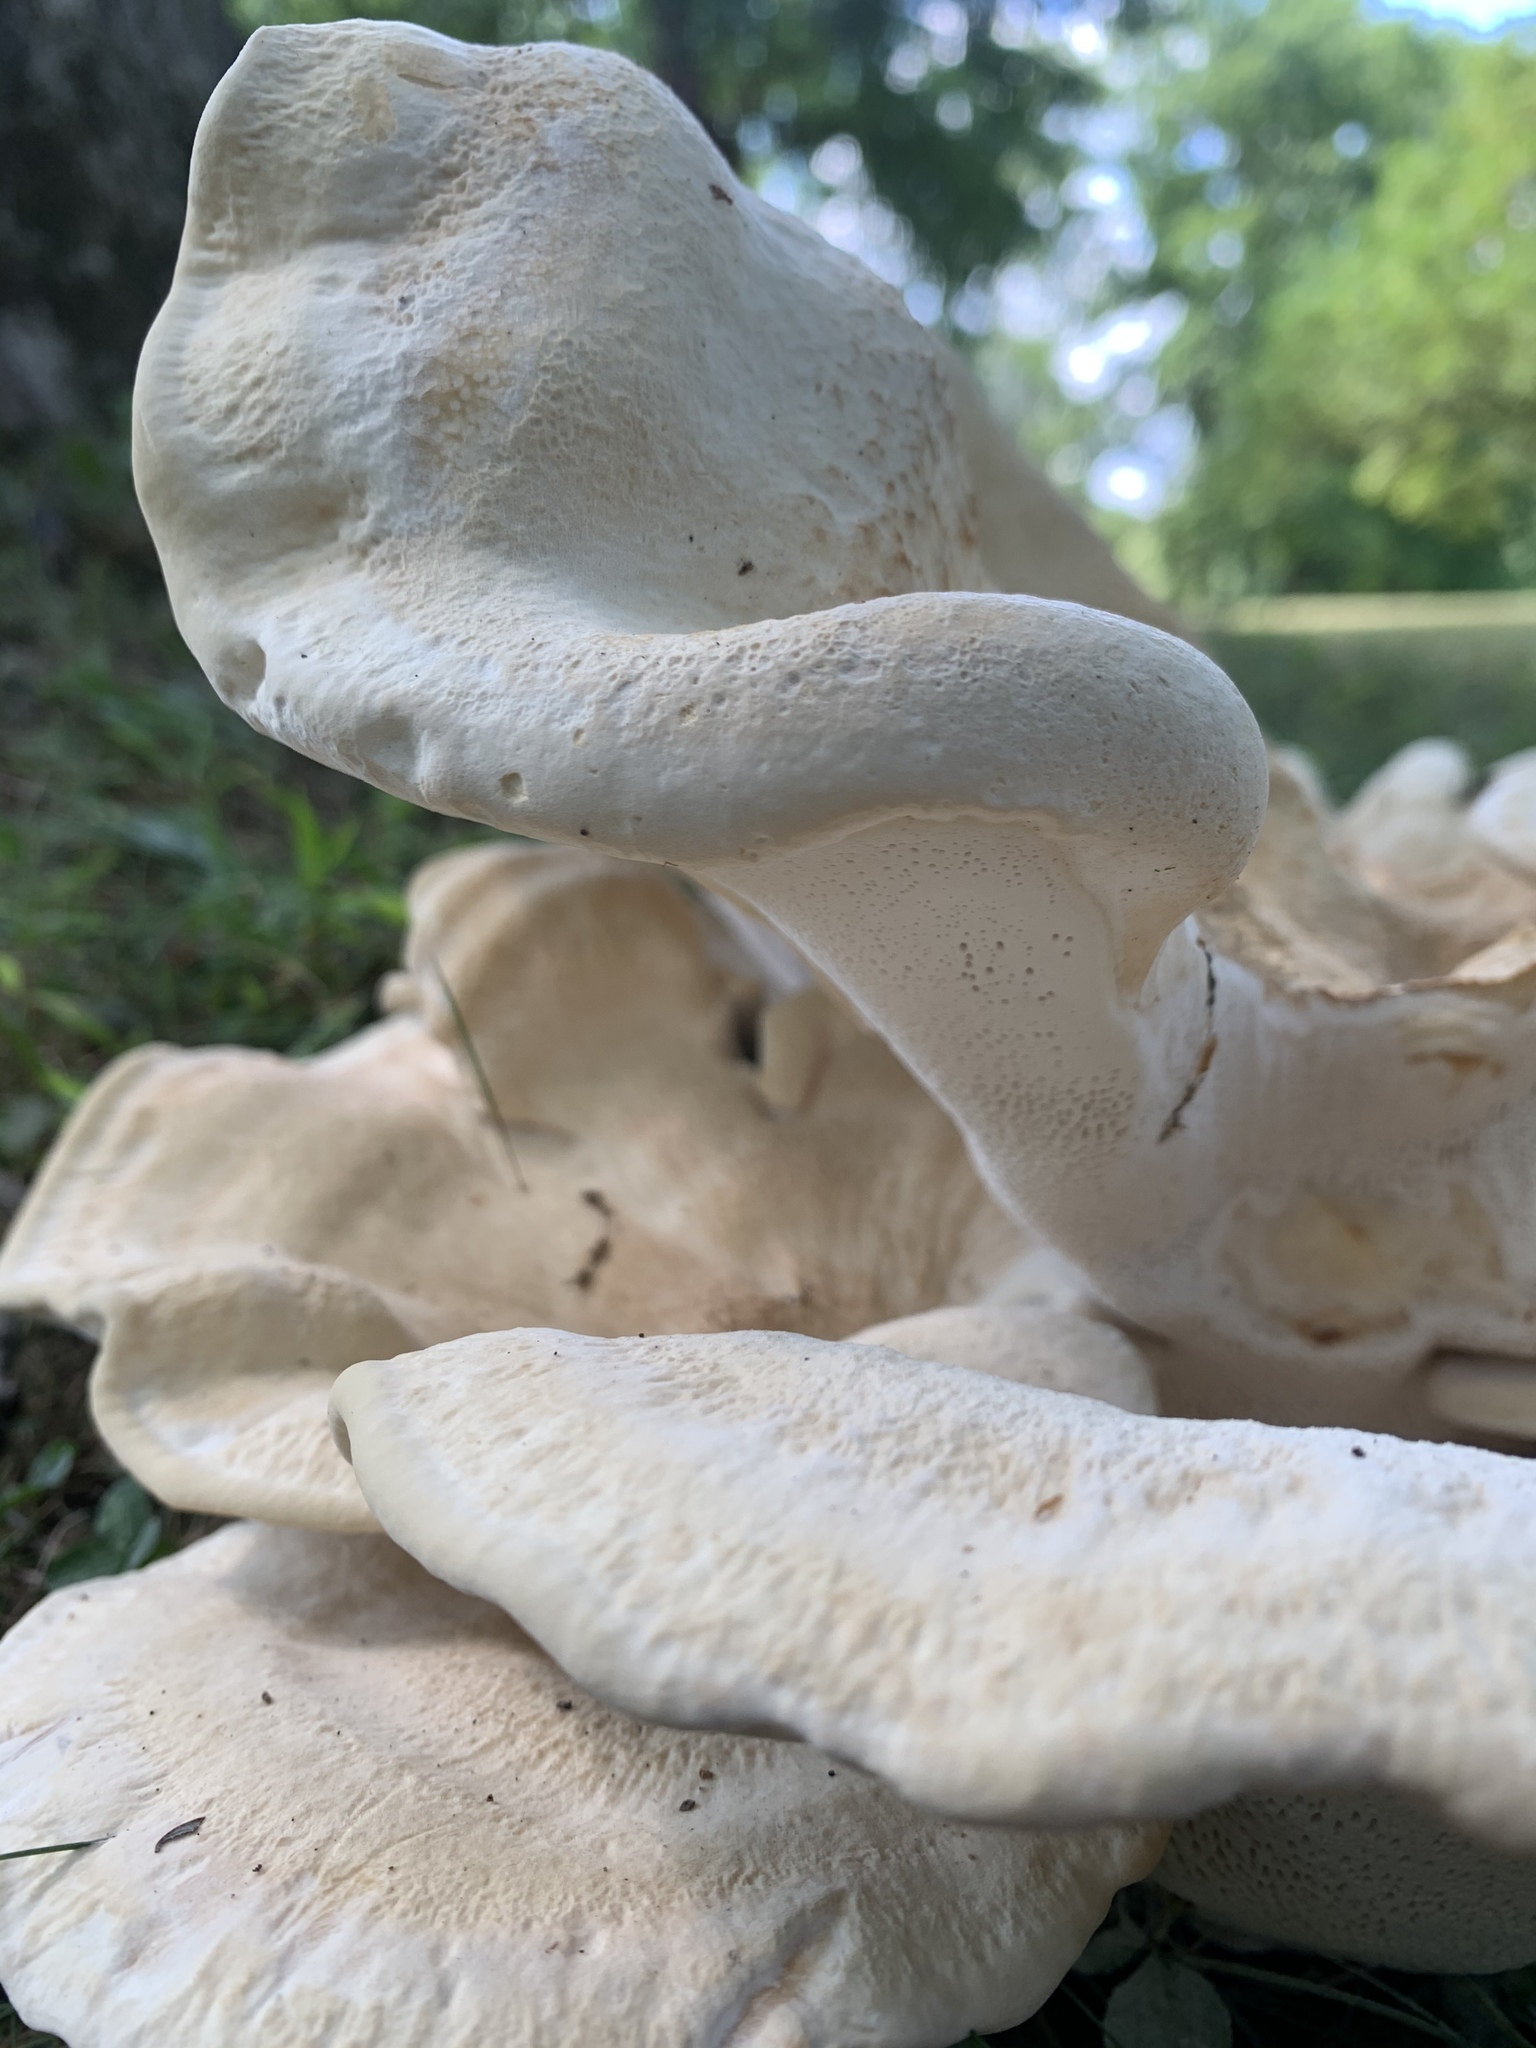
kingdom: Fungi
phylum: Basidiomycota
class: Agaricomycetes
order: Russulales
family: Bondarzewiaceae
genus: Bondarzewia
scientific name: Bondarzewia berkeleyi
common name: Berkeley's polypore
